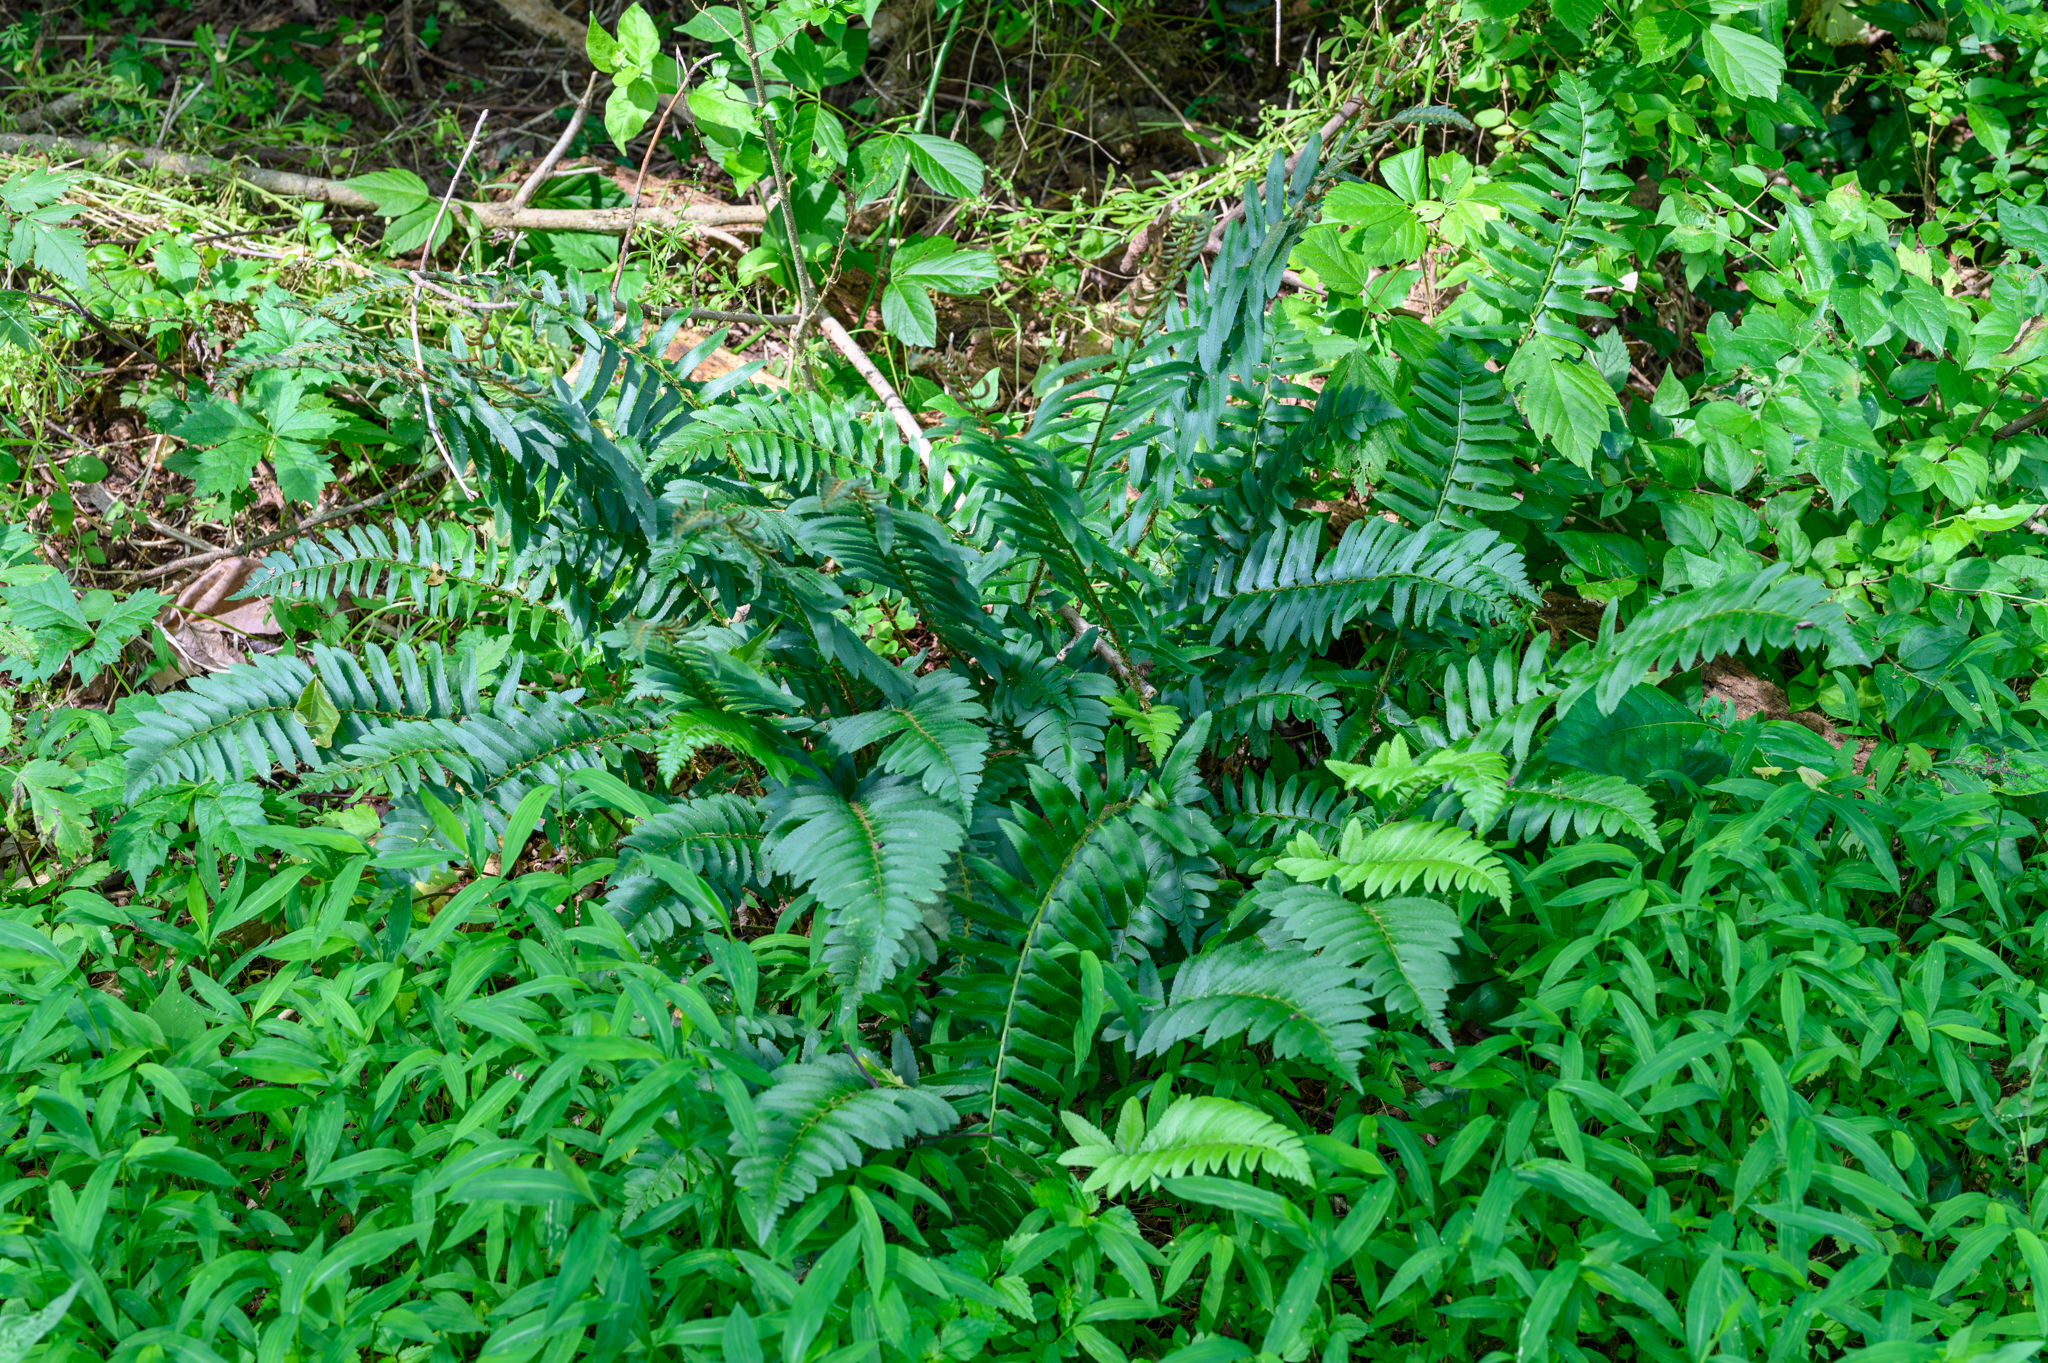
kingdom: Plantae
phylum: Tracheophyta
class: Polypodiopsida
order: Polypodiales
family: Dryopteridaceae
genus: Polystichum
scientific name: Polystichum acrostichoides
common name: Christmas fern
